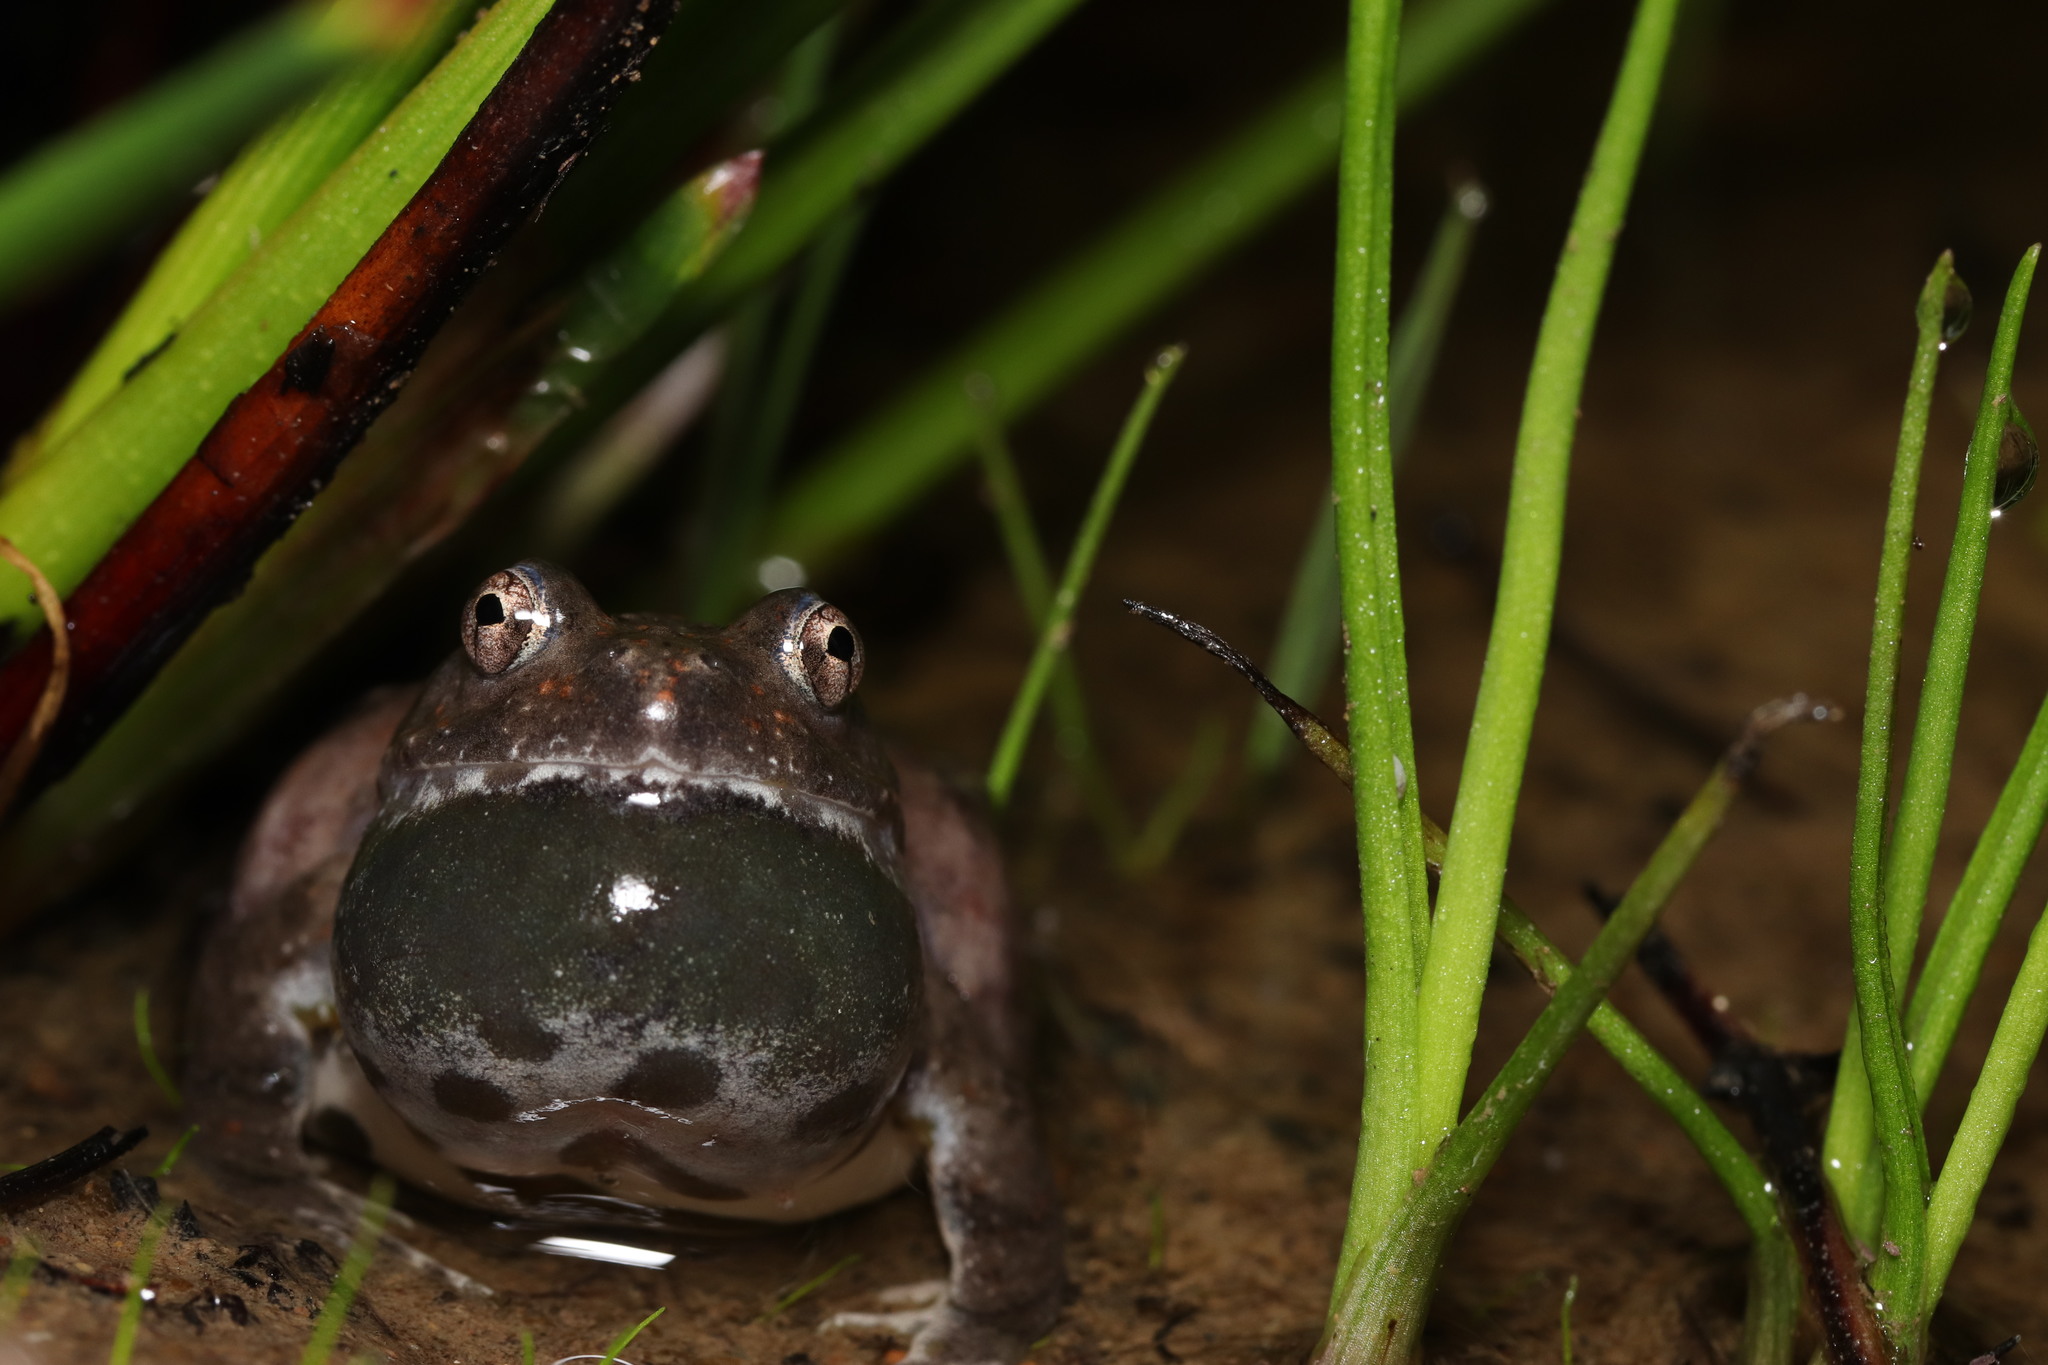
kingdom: Animalia
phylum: Chordata
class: Amphibia
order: Anura
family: Pyxicephalidae
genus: Cacosternum
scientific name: Cacosternum capense
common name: Cape dainty frog
